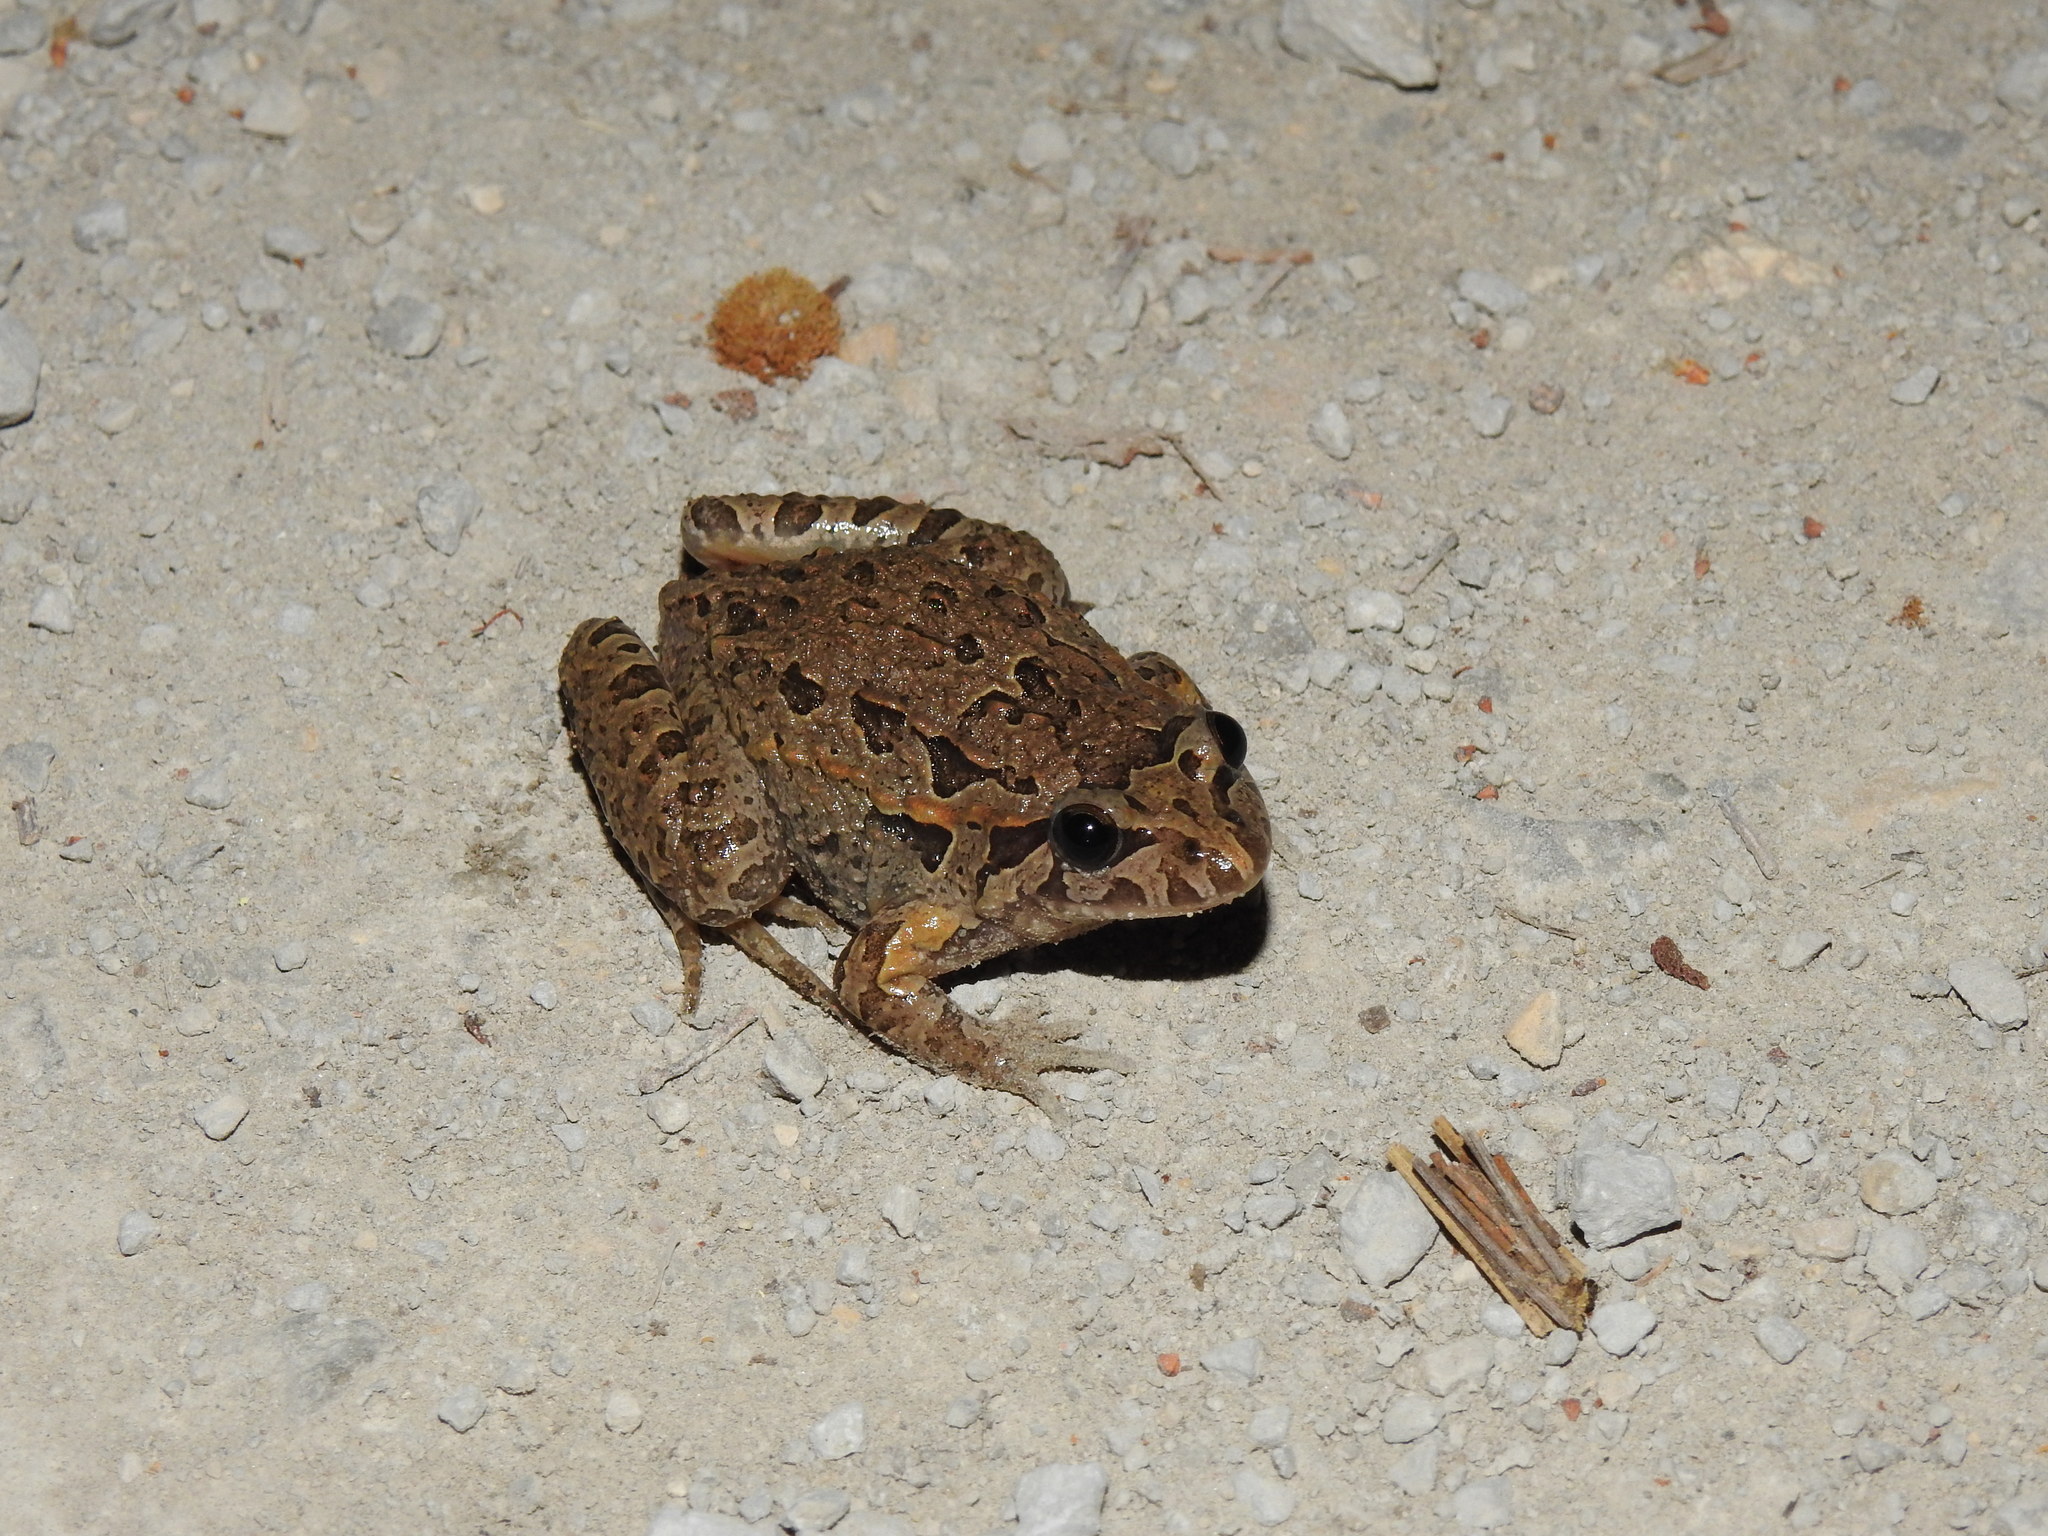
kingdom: Animalia
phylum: Chordata
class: Amphibia
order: Anura
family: Alytidae
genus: Discoglossus
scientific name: Discoglossus galganoi
